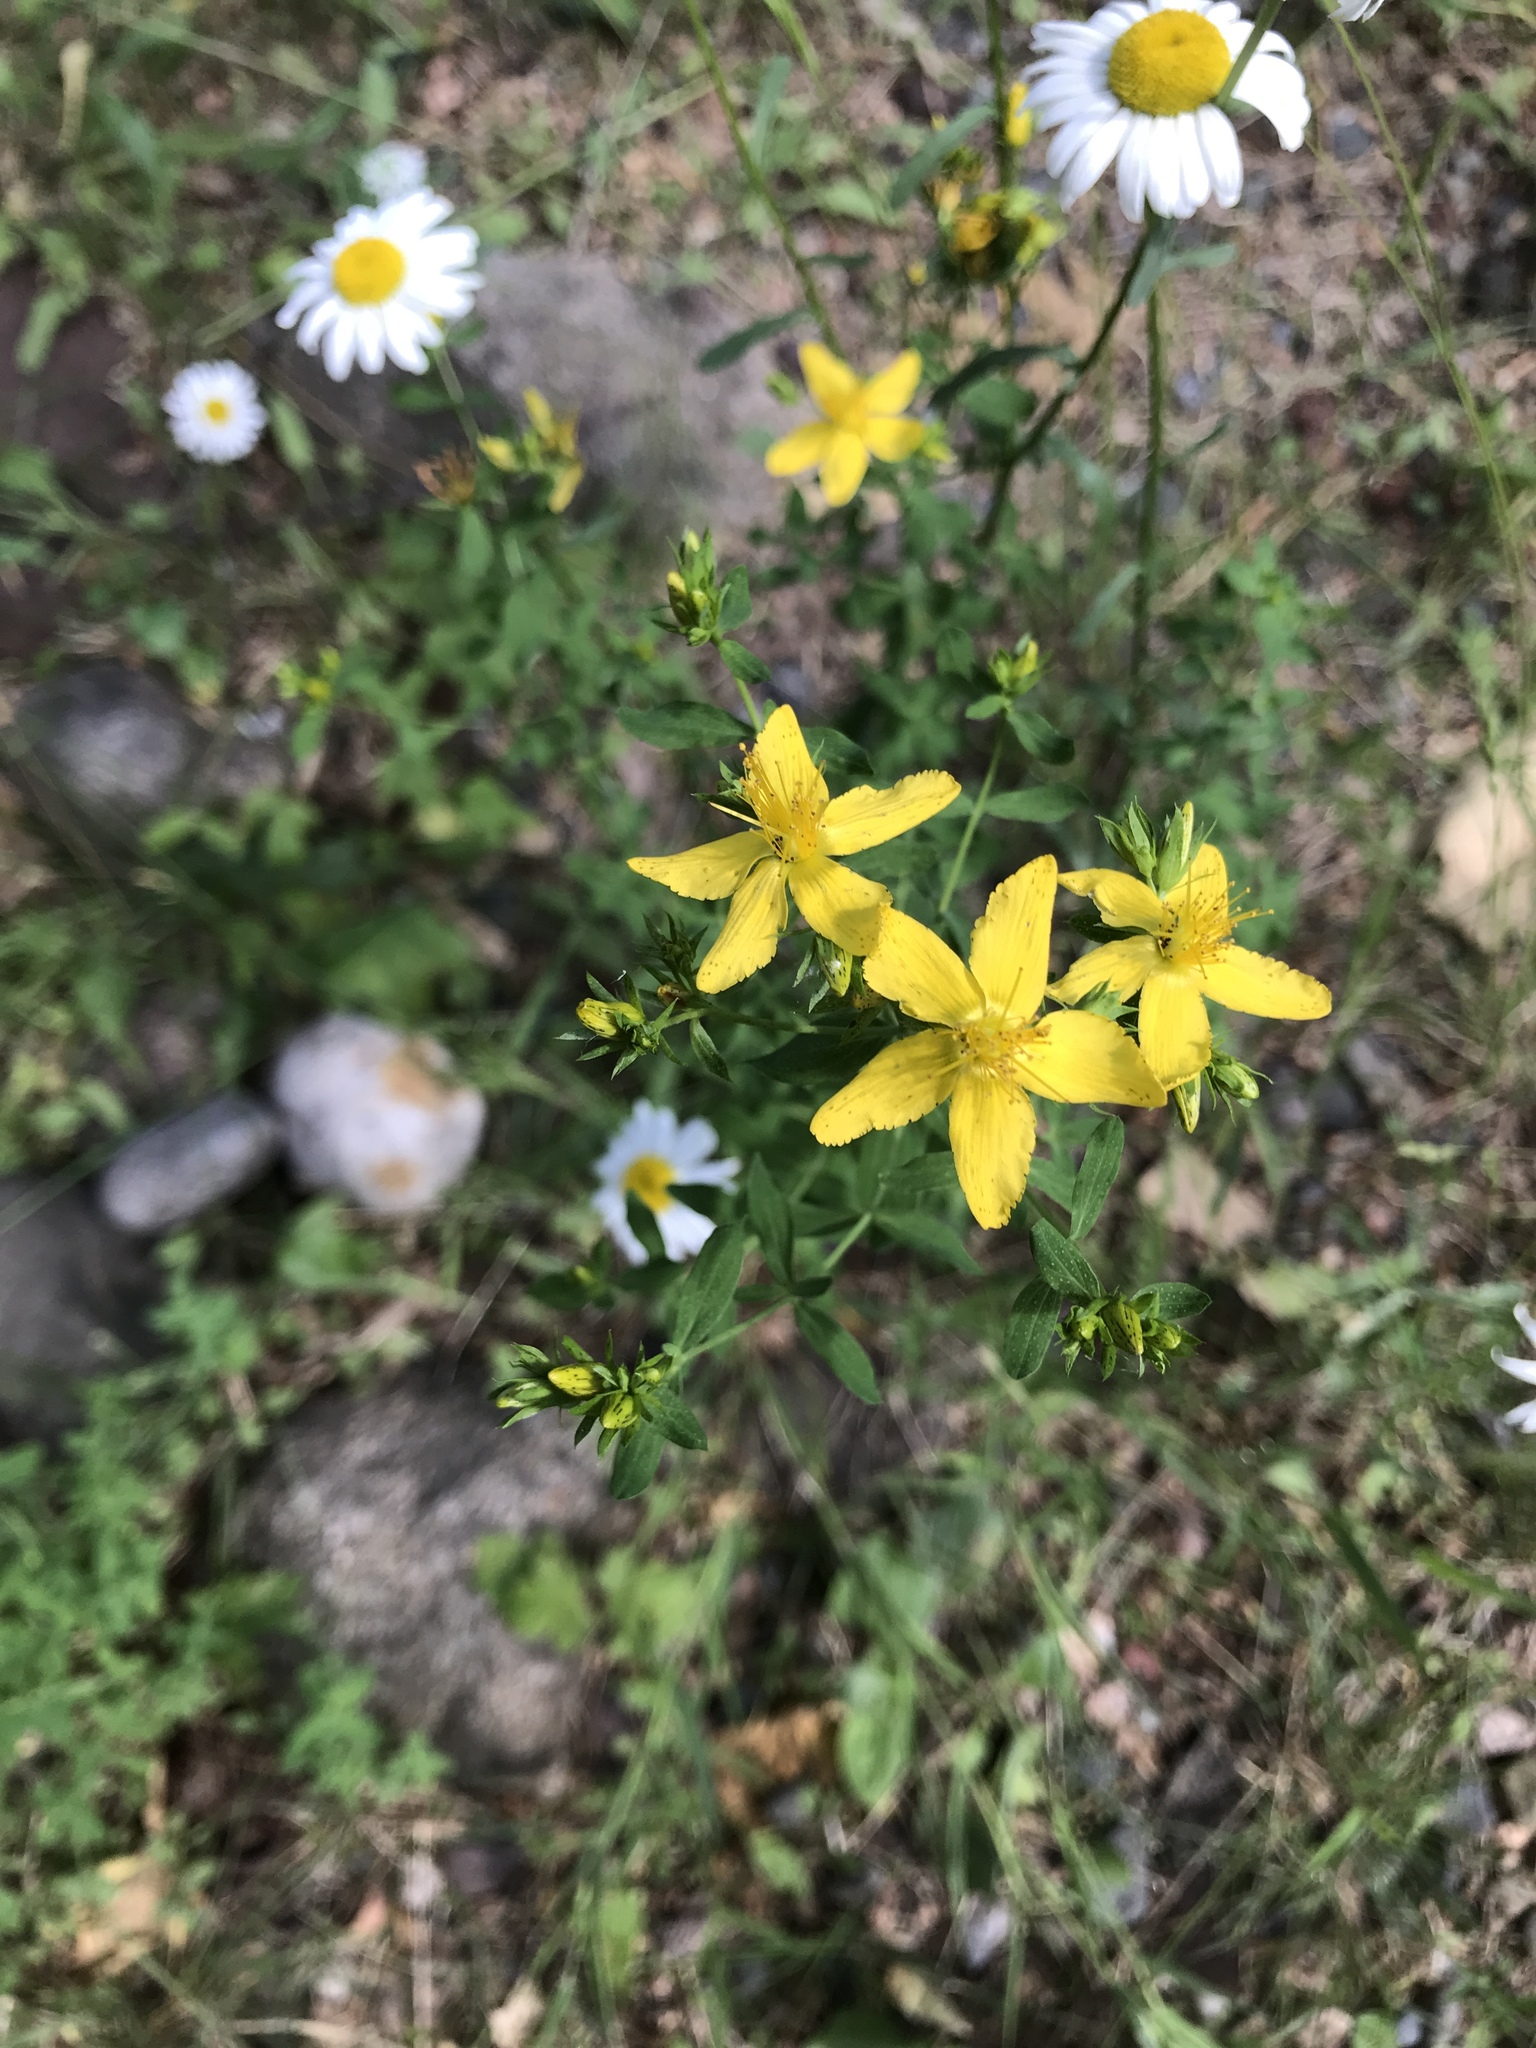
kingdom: Plantae
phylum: Tracheophyta
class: Magnoliopsida
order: Malpighiales
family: Hypericaceae
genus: Hypericum
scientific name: Hypericum perforatum
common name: Common st. johnswort
